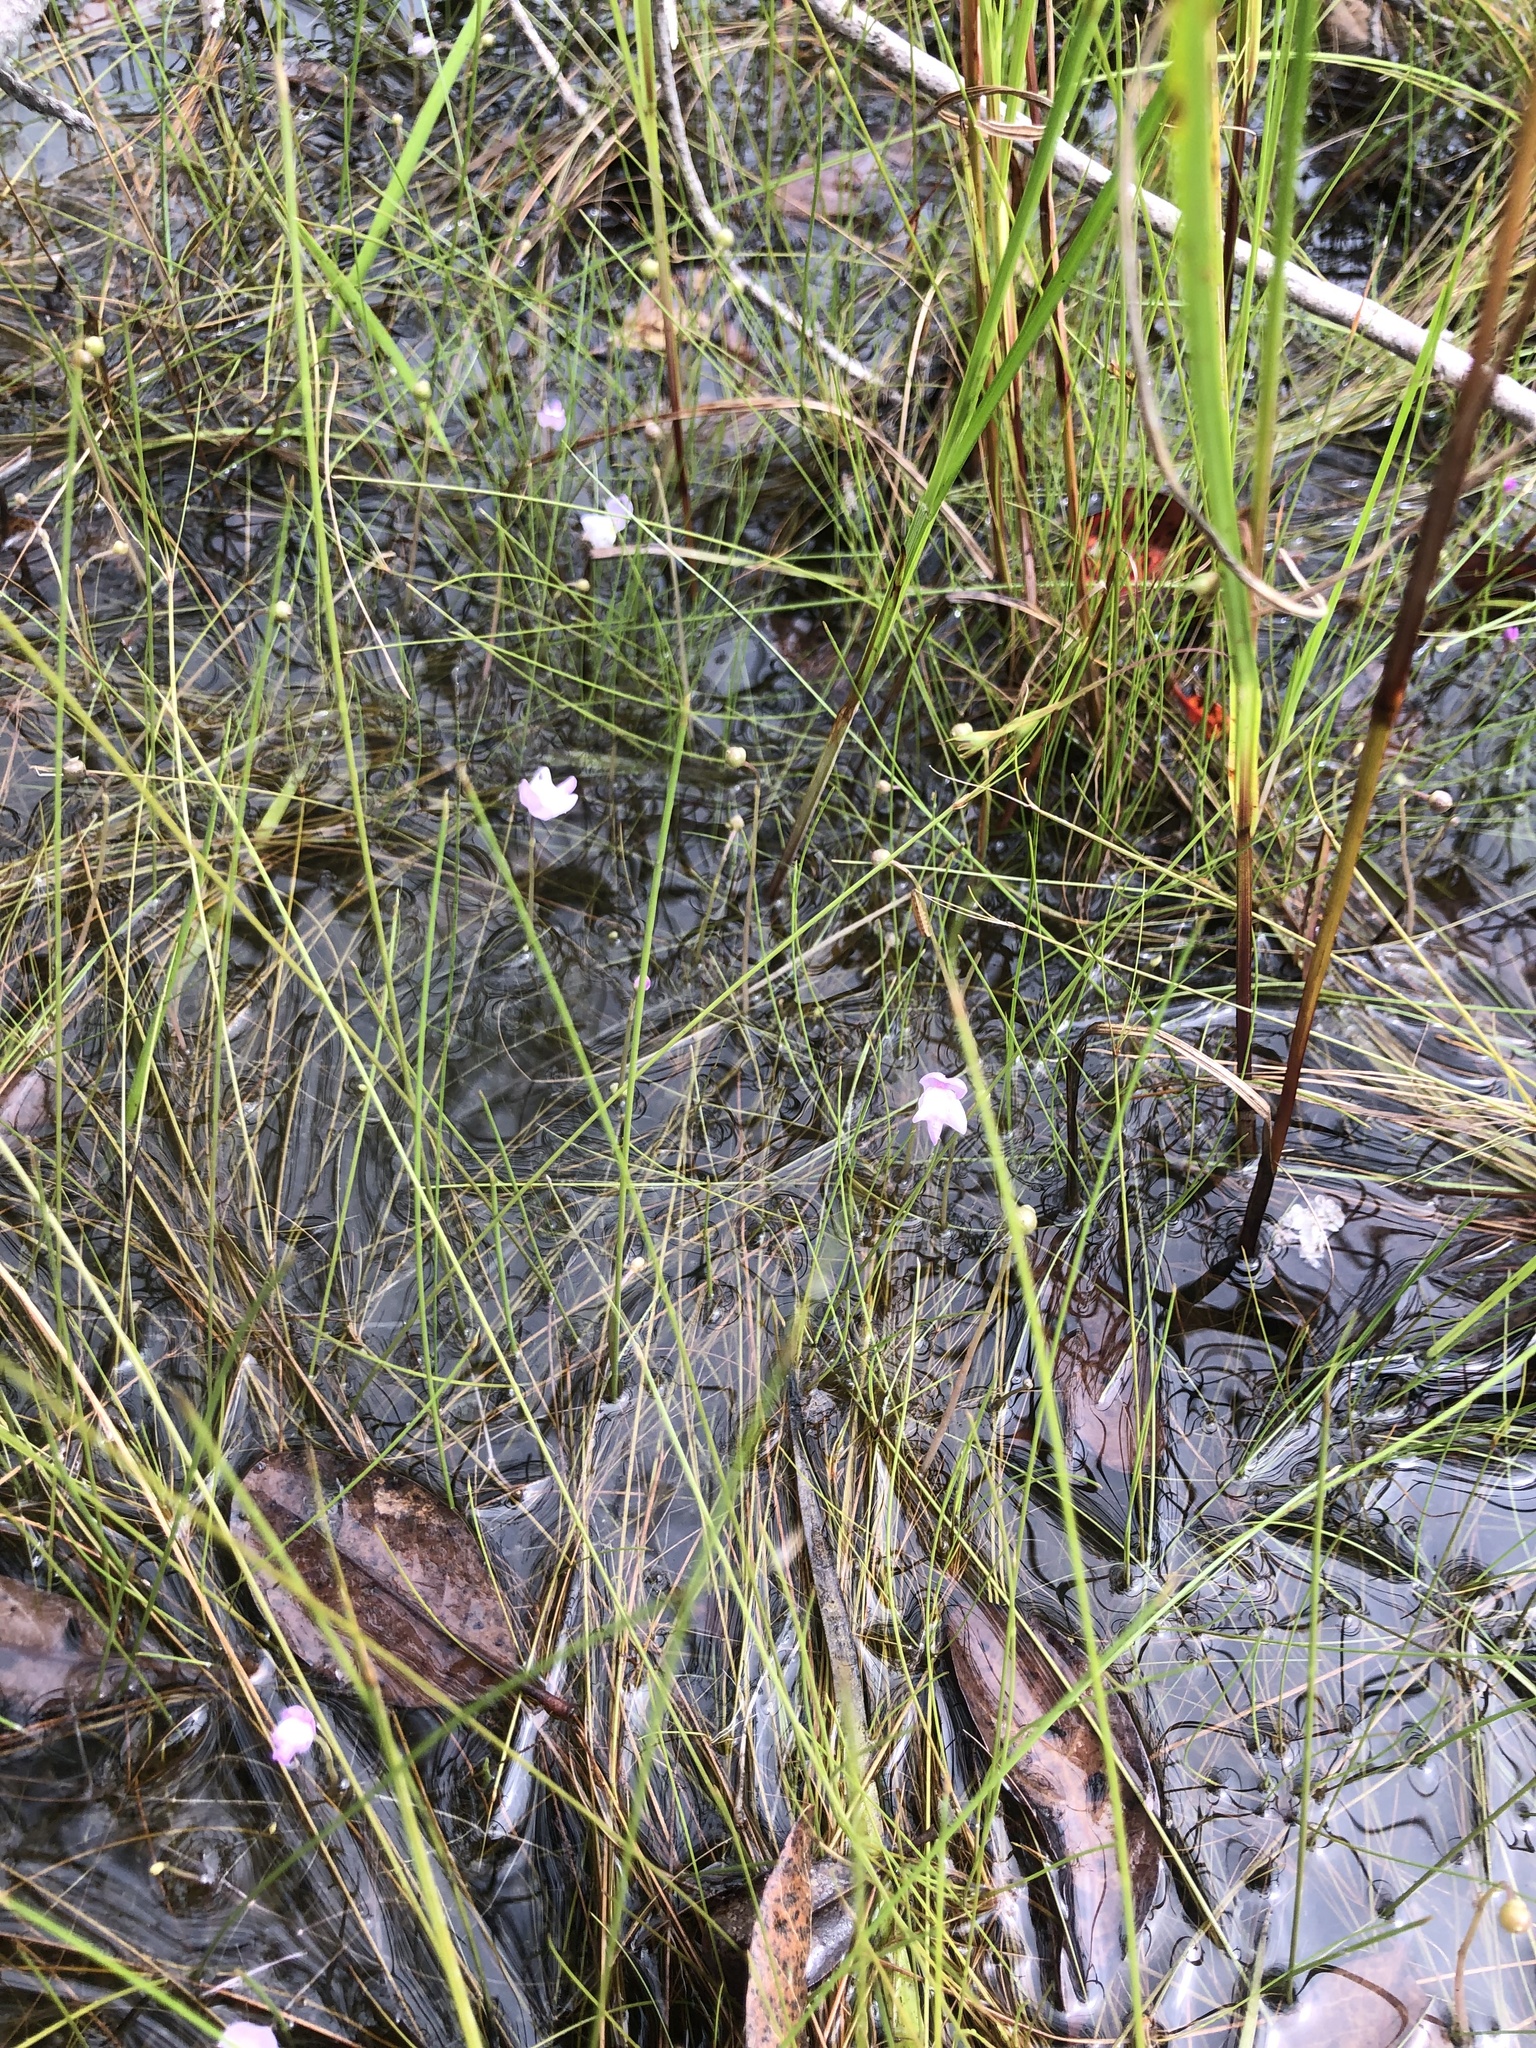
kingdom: Plantae
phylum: Tracheophyta
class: Magnoliopsida
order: Lamiales
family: Lentibulariaceae
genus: Utricularia
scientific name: Utricularia purpurea
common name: Eastern purple bladderwort
